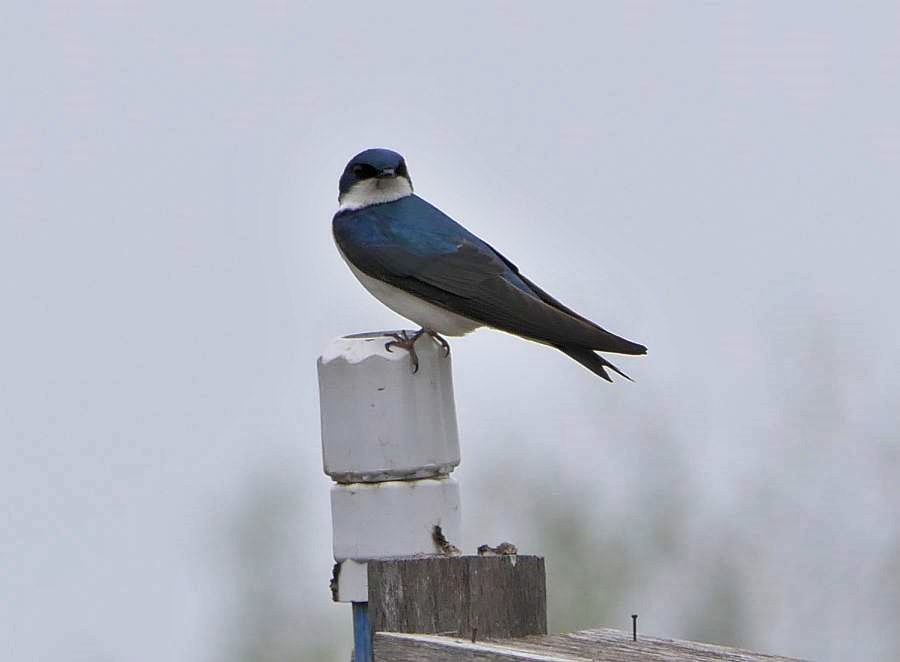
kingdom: Animalia
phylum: Chordata
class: Aves
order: Passeriformes
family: Hirundinidae
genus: Tachycineta
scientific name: Tachycineta bicolor
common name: Tree swallow
